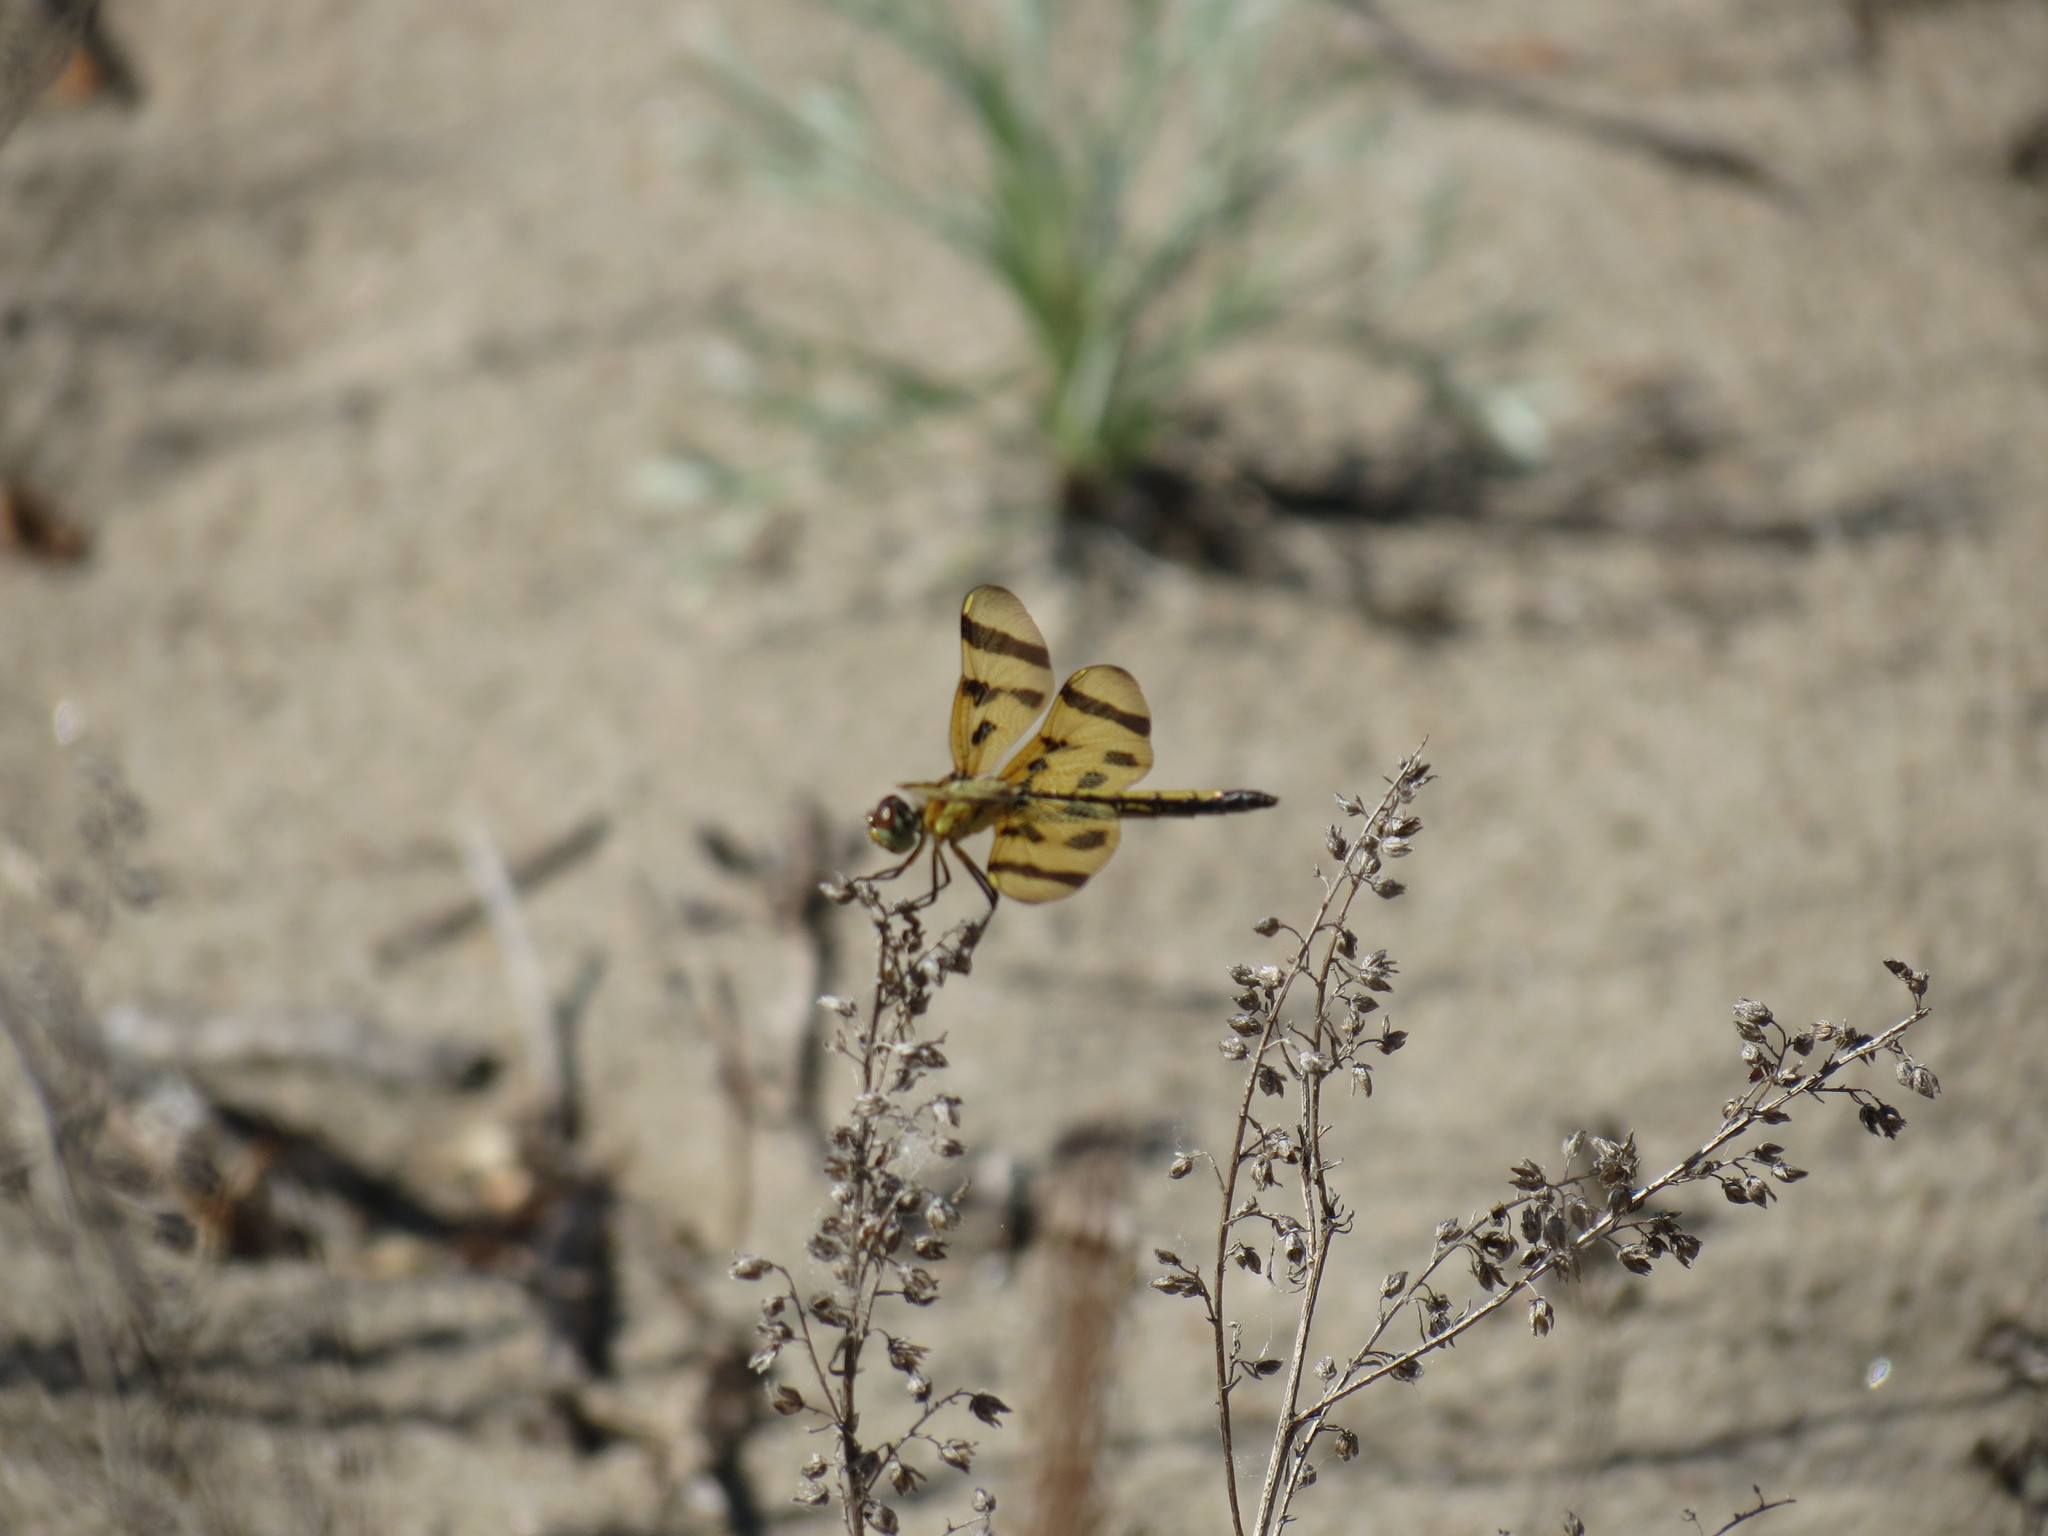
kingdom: Animalia
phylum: Arthropoda
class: Insecta
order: Odonata
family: Libellulidae
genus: Celithemis
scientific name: Celithemis eponina
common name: Halloween pennant
